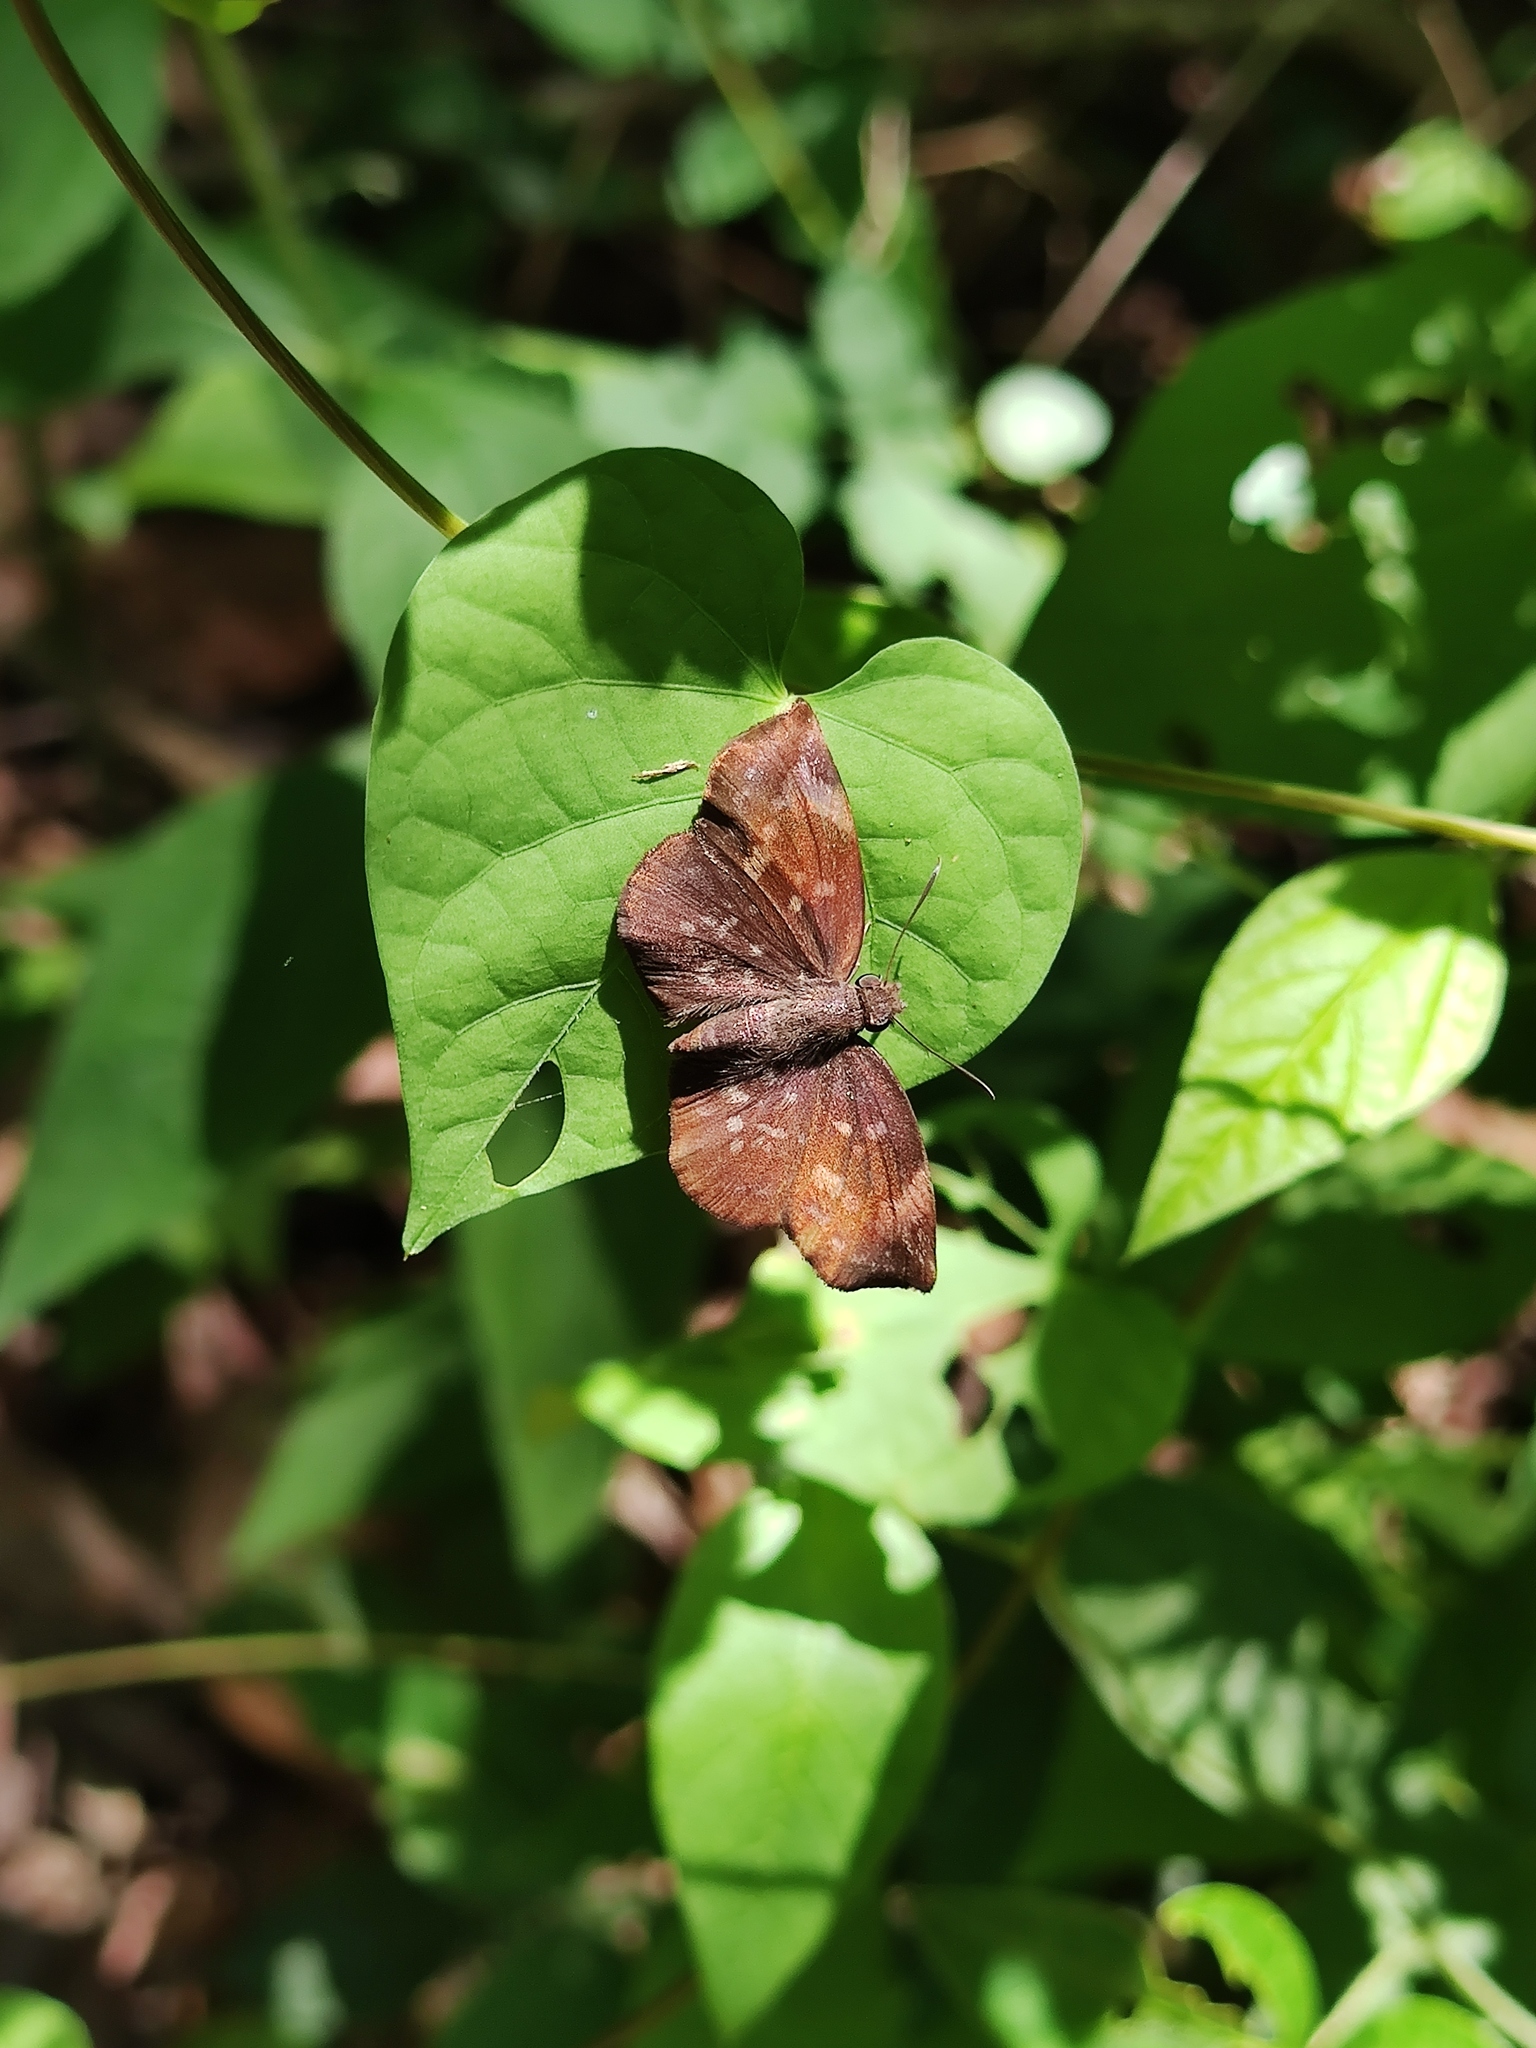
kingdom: Animalia
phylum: Arthropoda
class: Insecta
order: Lepidoptera
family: Hesperiidae
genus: Achlyodes
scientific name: Achlyodes thraso
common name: Sickle-winged skipper
